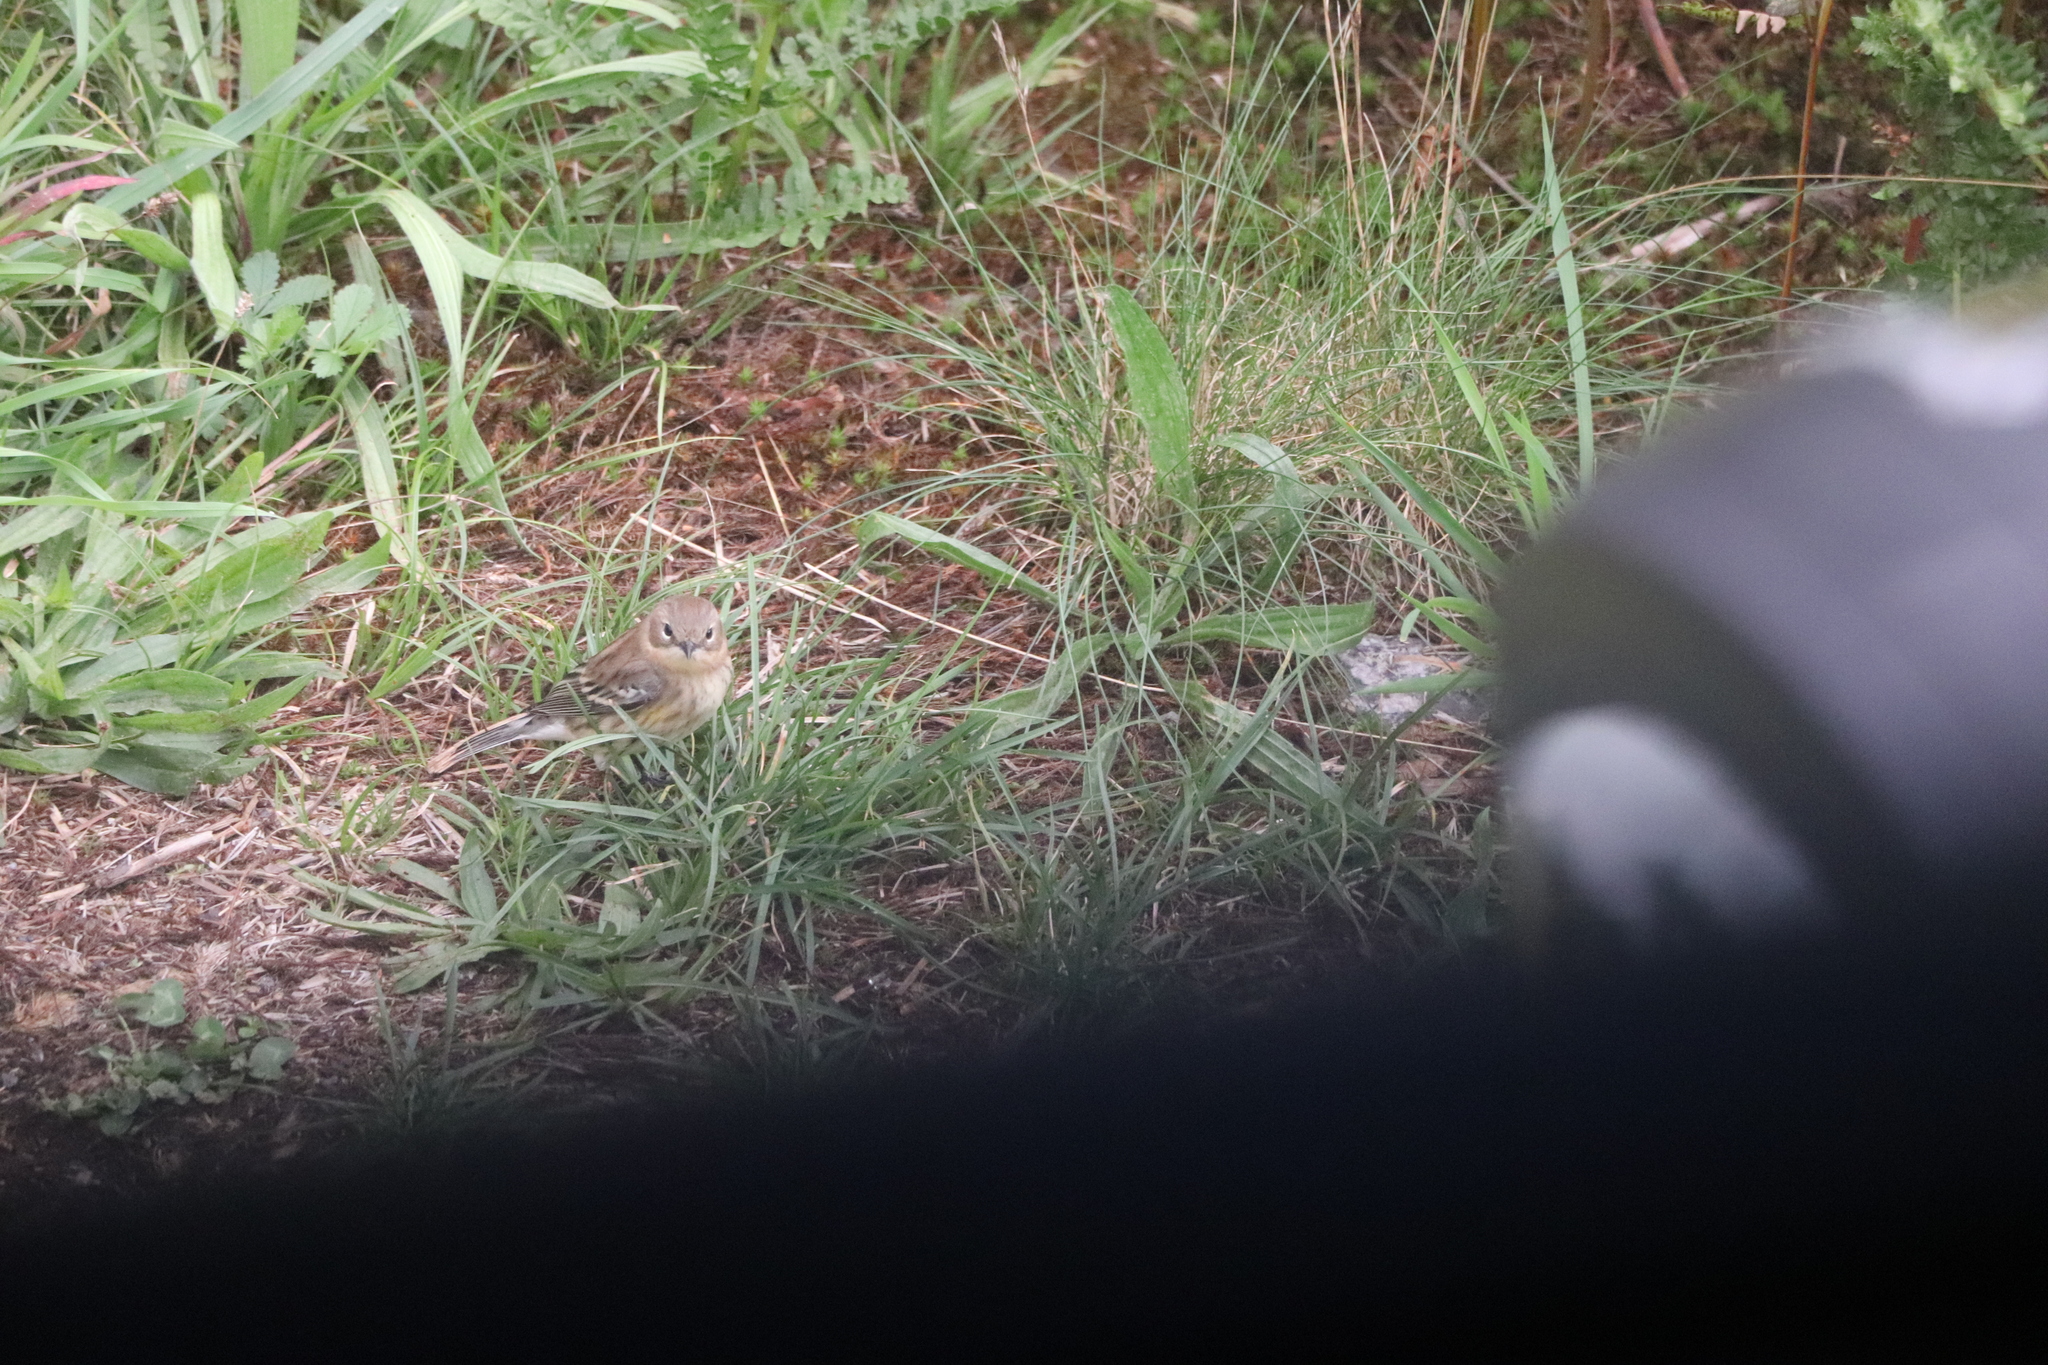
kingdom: Animalia
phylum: Chordata
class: Aves
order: Passeriformes
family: Parulidae
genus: Setophaga
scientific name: Setophaga coronata
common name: Myrtle warbler
